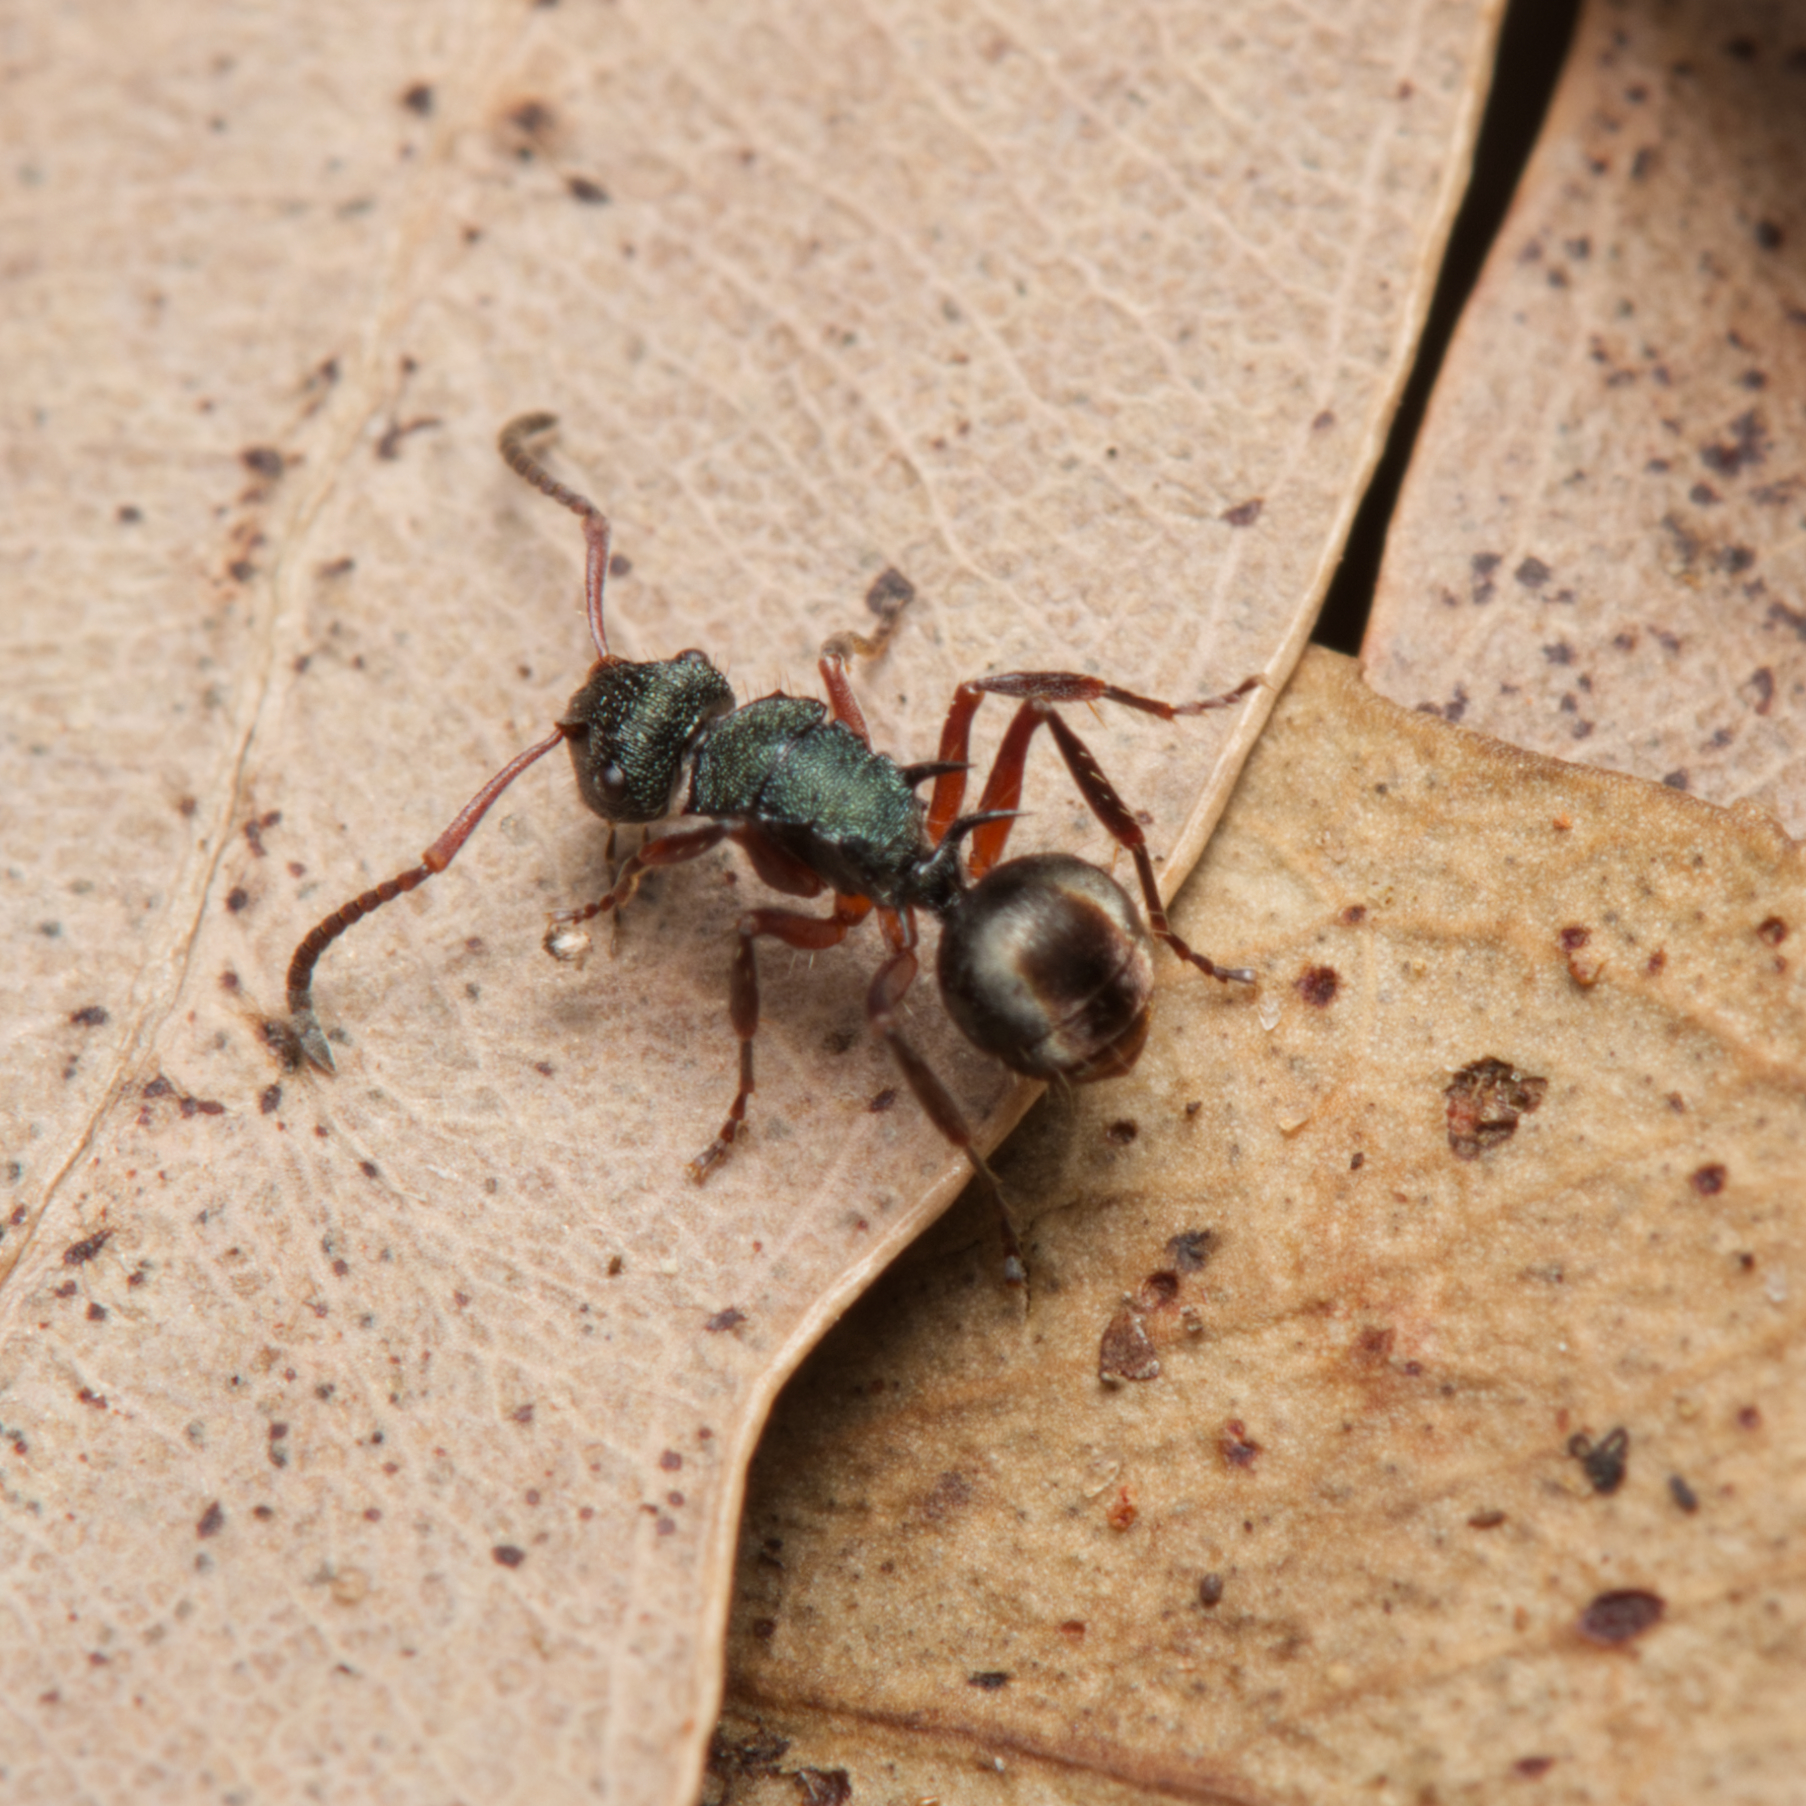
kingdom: Animalia
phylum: Arthropoda
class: Insecta
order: Hymenoptera
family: Formicidae
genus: Polyrhachis
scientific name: Polyrhachis hookeri
